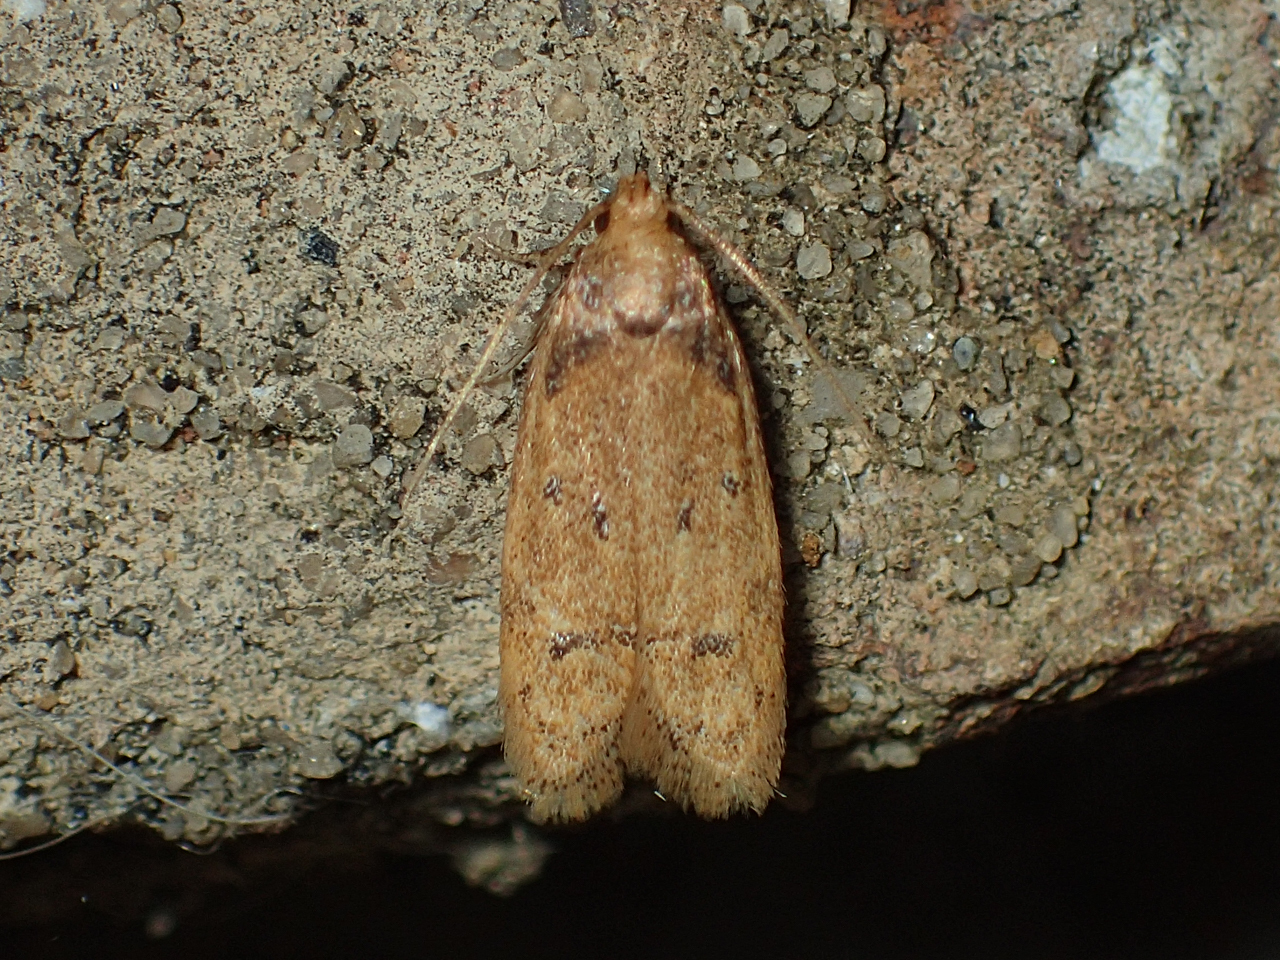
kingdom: Animalia
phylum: Arthropoda
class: Insecta
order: Lepidoptera
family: Autostichidae
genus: Gerdana
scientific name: Gerdana caritella
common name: Gerdana moth
